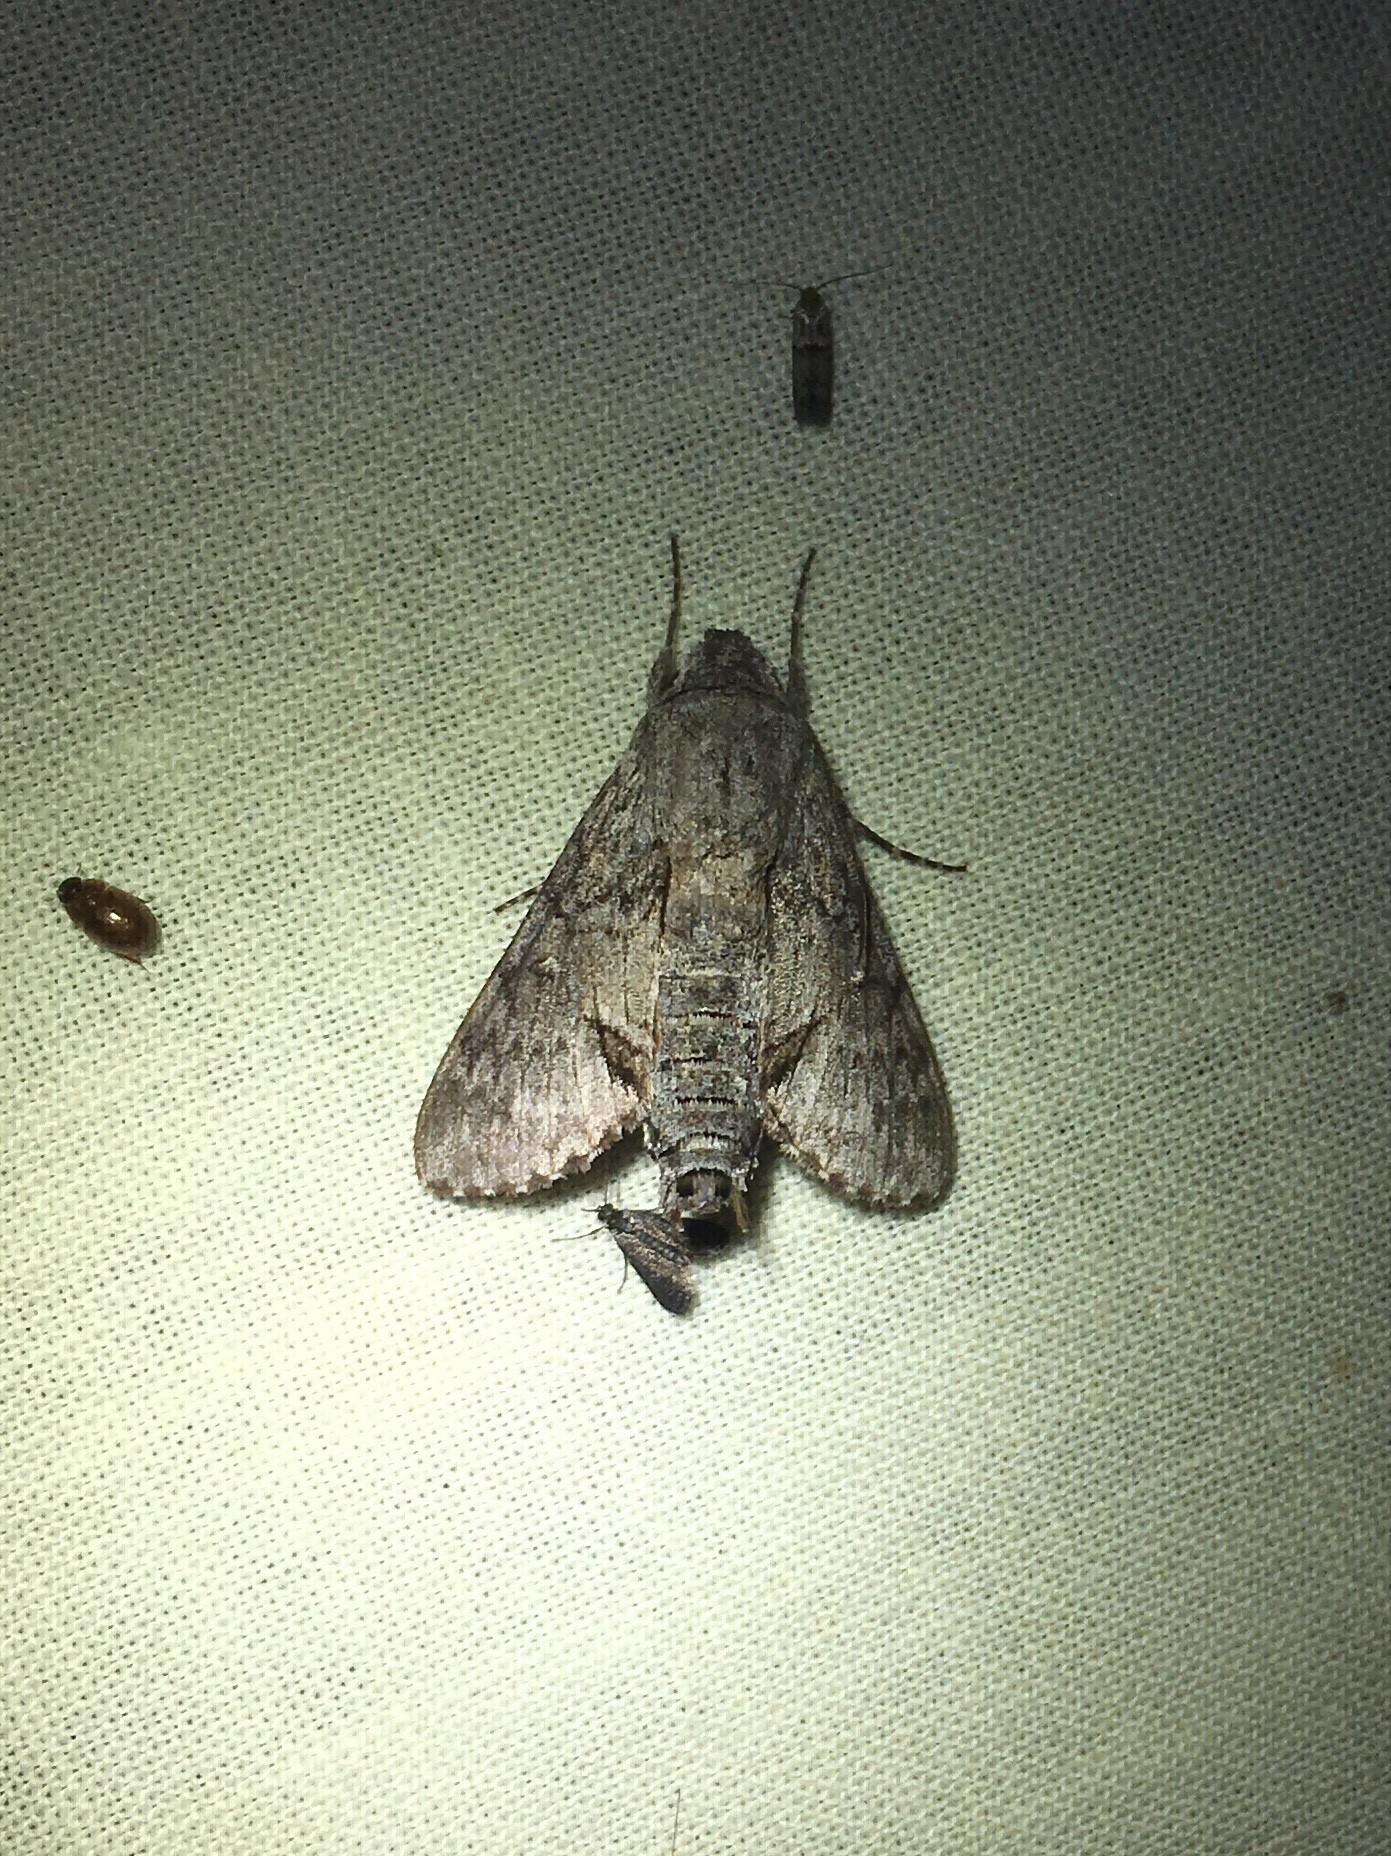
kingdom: Animalia
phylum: Arthropoda
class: Insecta
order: Lepidoptera
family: Sphingidae
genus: Cautethia
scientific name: Cautethia grotei
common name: Grote's sphinx
